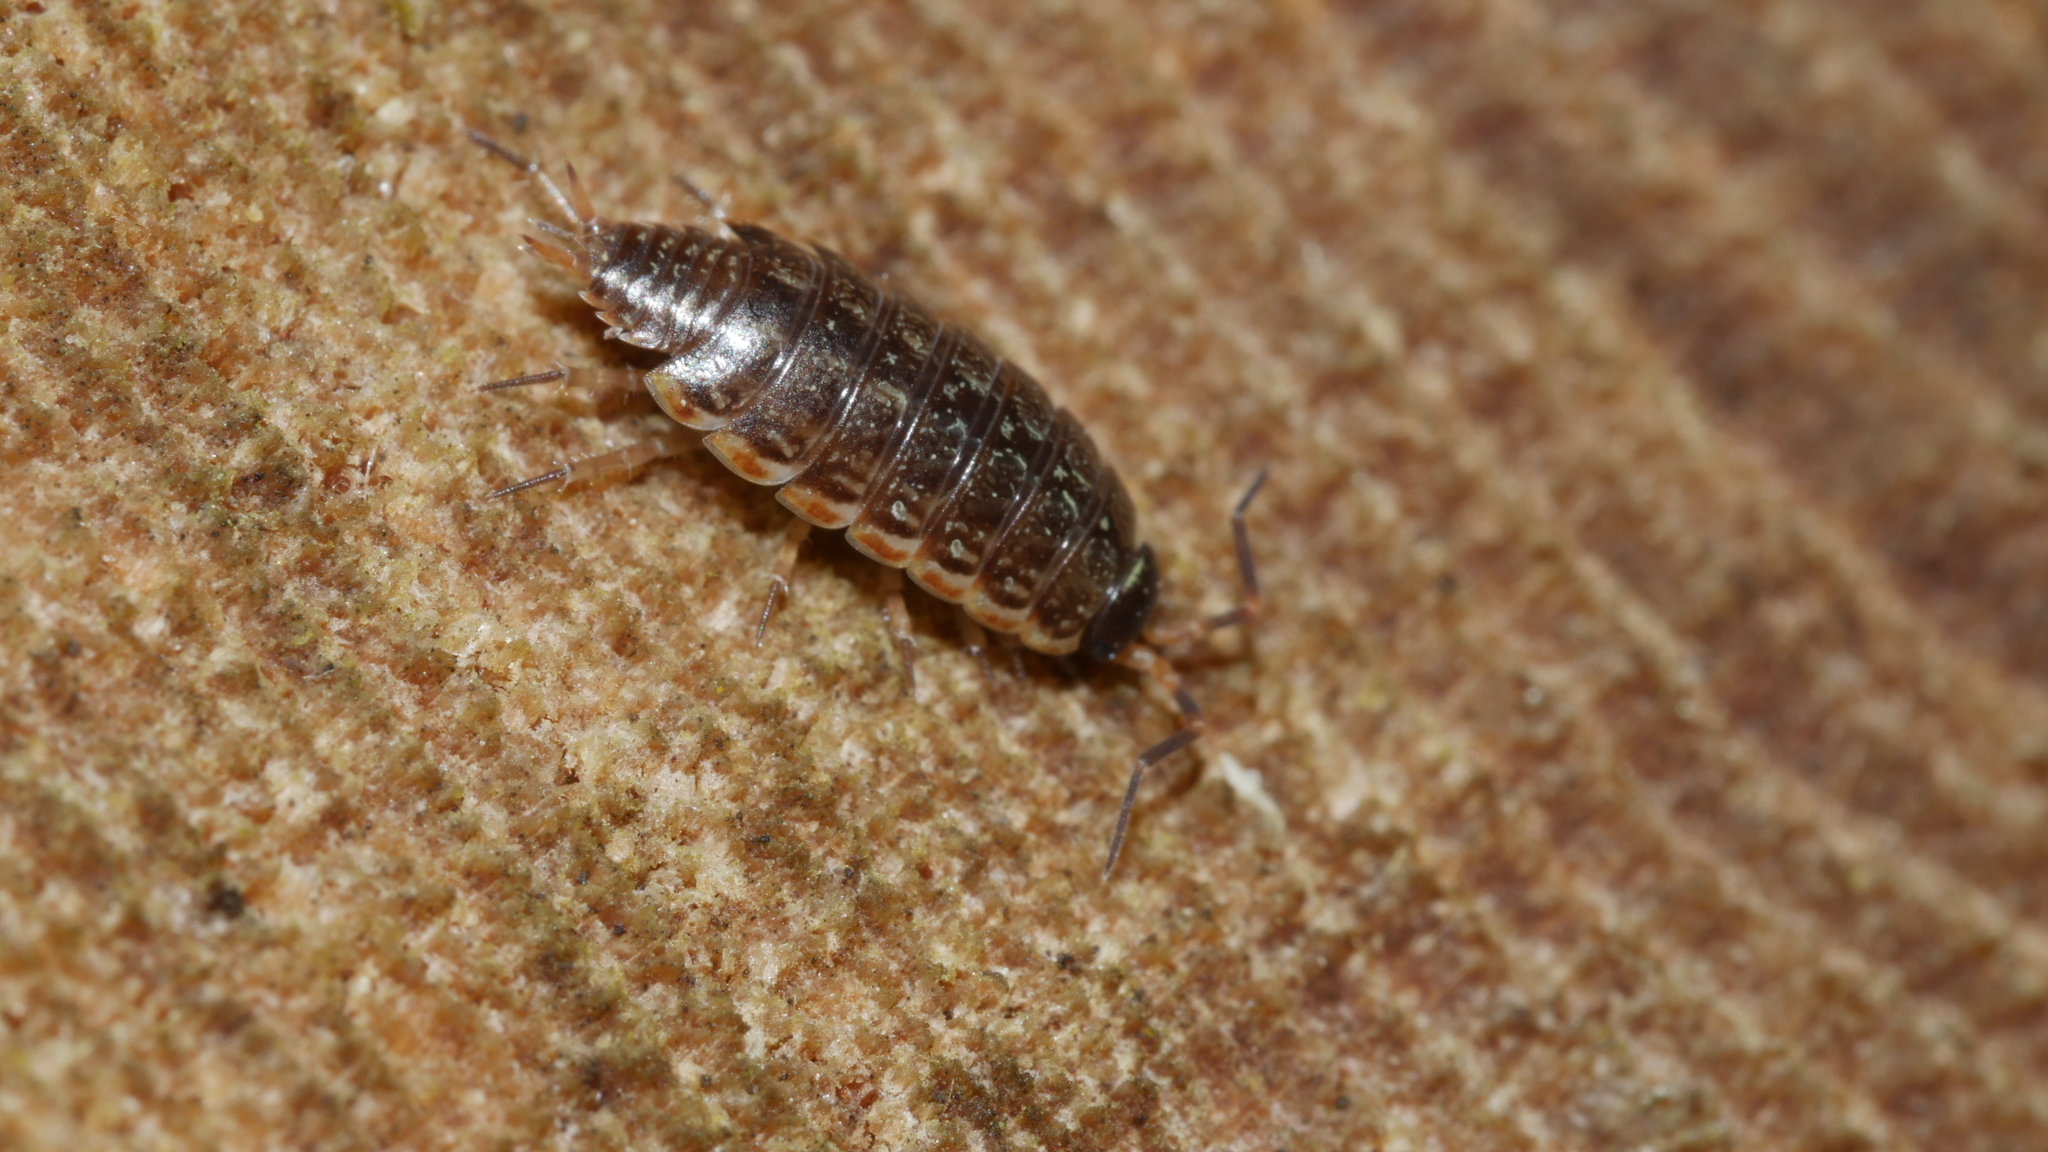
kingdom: Animalia
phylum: Arthropoda
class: Malacostraca
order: Isopoda
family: Philosciidae
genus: Philoscia
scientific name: Philoscia muscorum
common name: Common striped woodlouse
